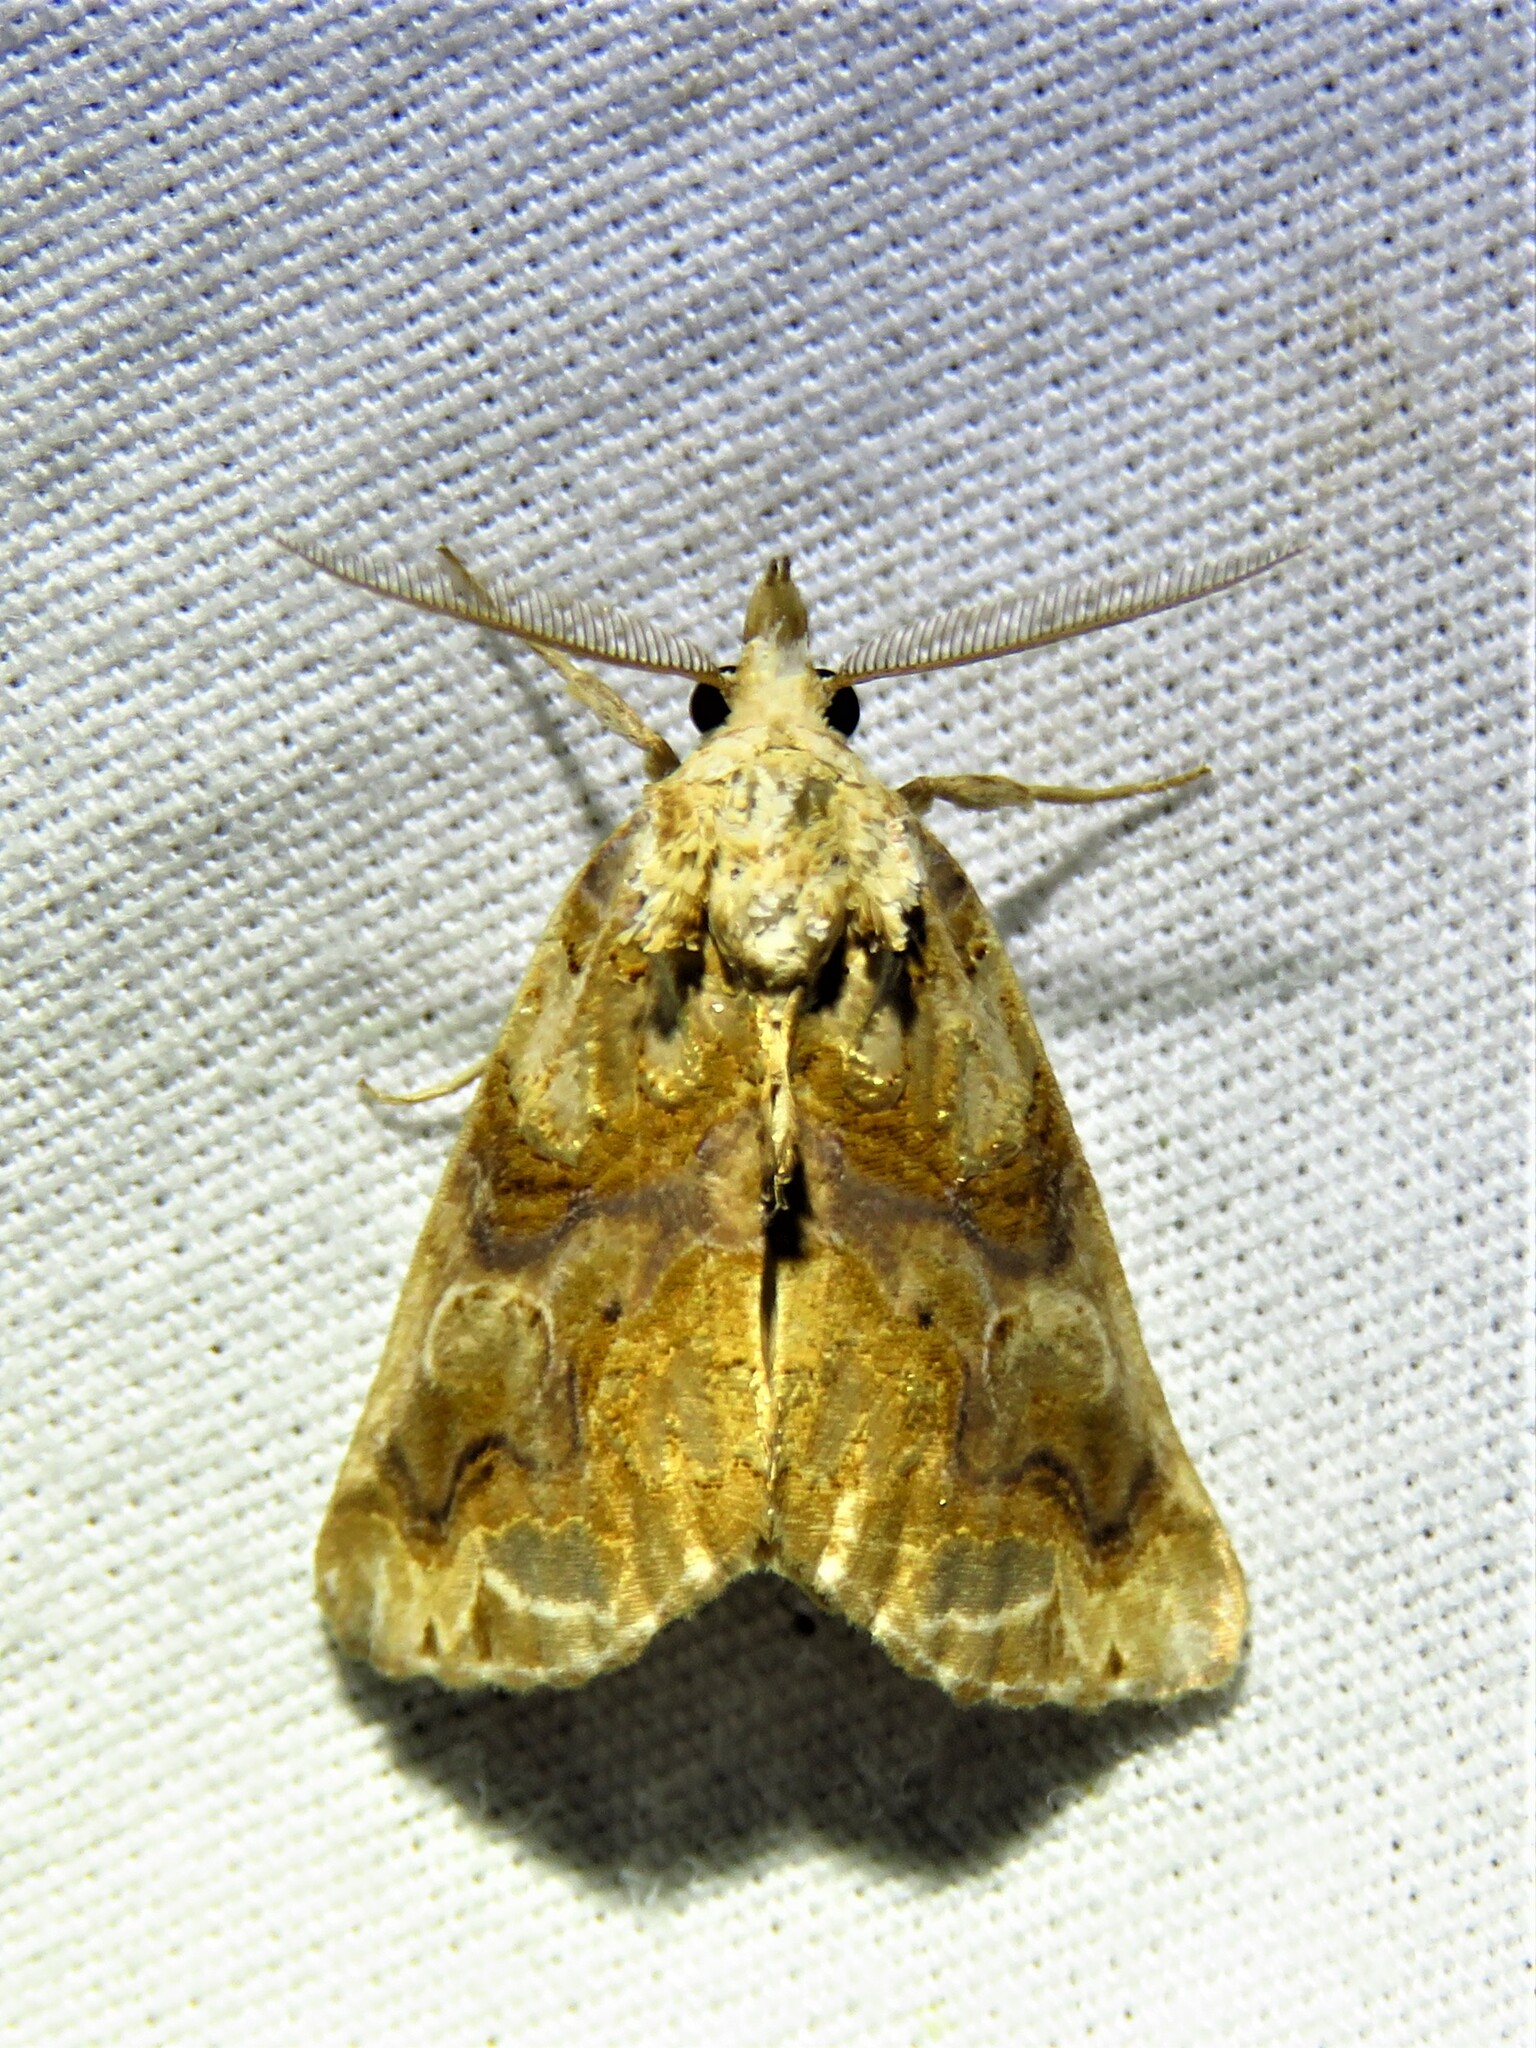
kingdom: Animalia
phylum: Arthropoda
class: Insecta
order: Lepidoptera
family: Erebidae
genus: Plusiodonta
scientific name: Plusiodonta compressipalpis
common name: Moonseed moth
